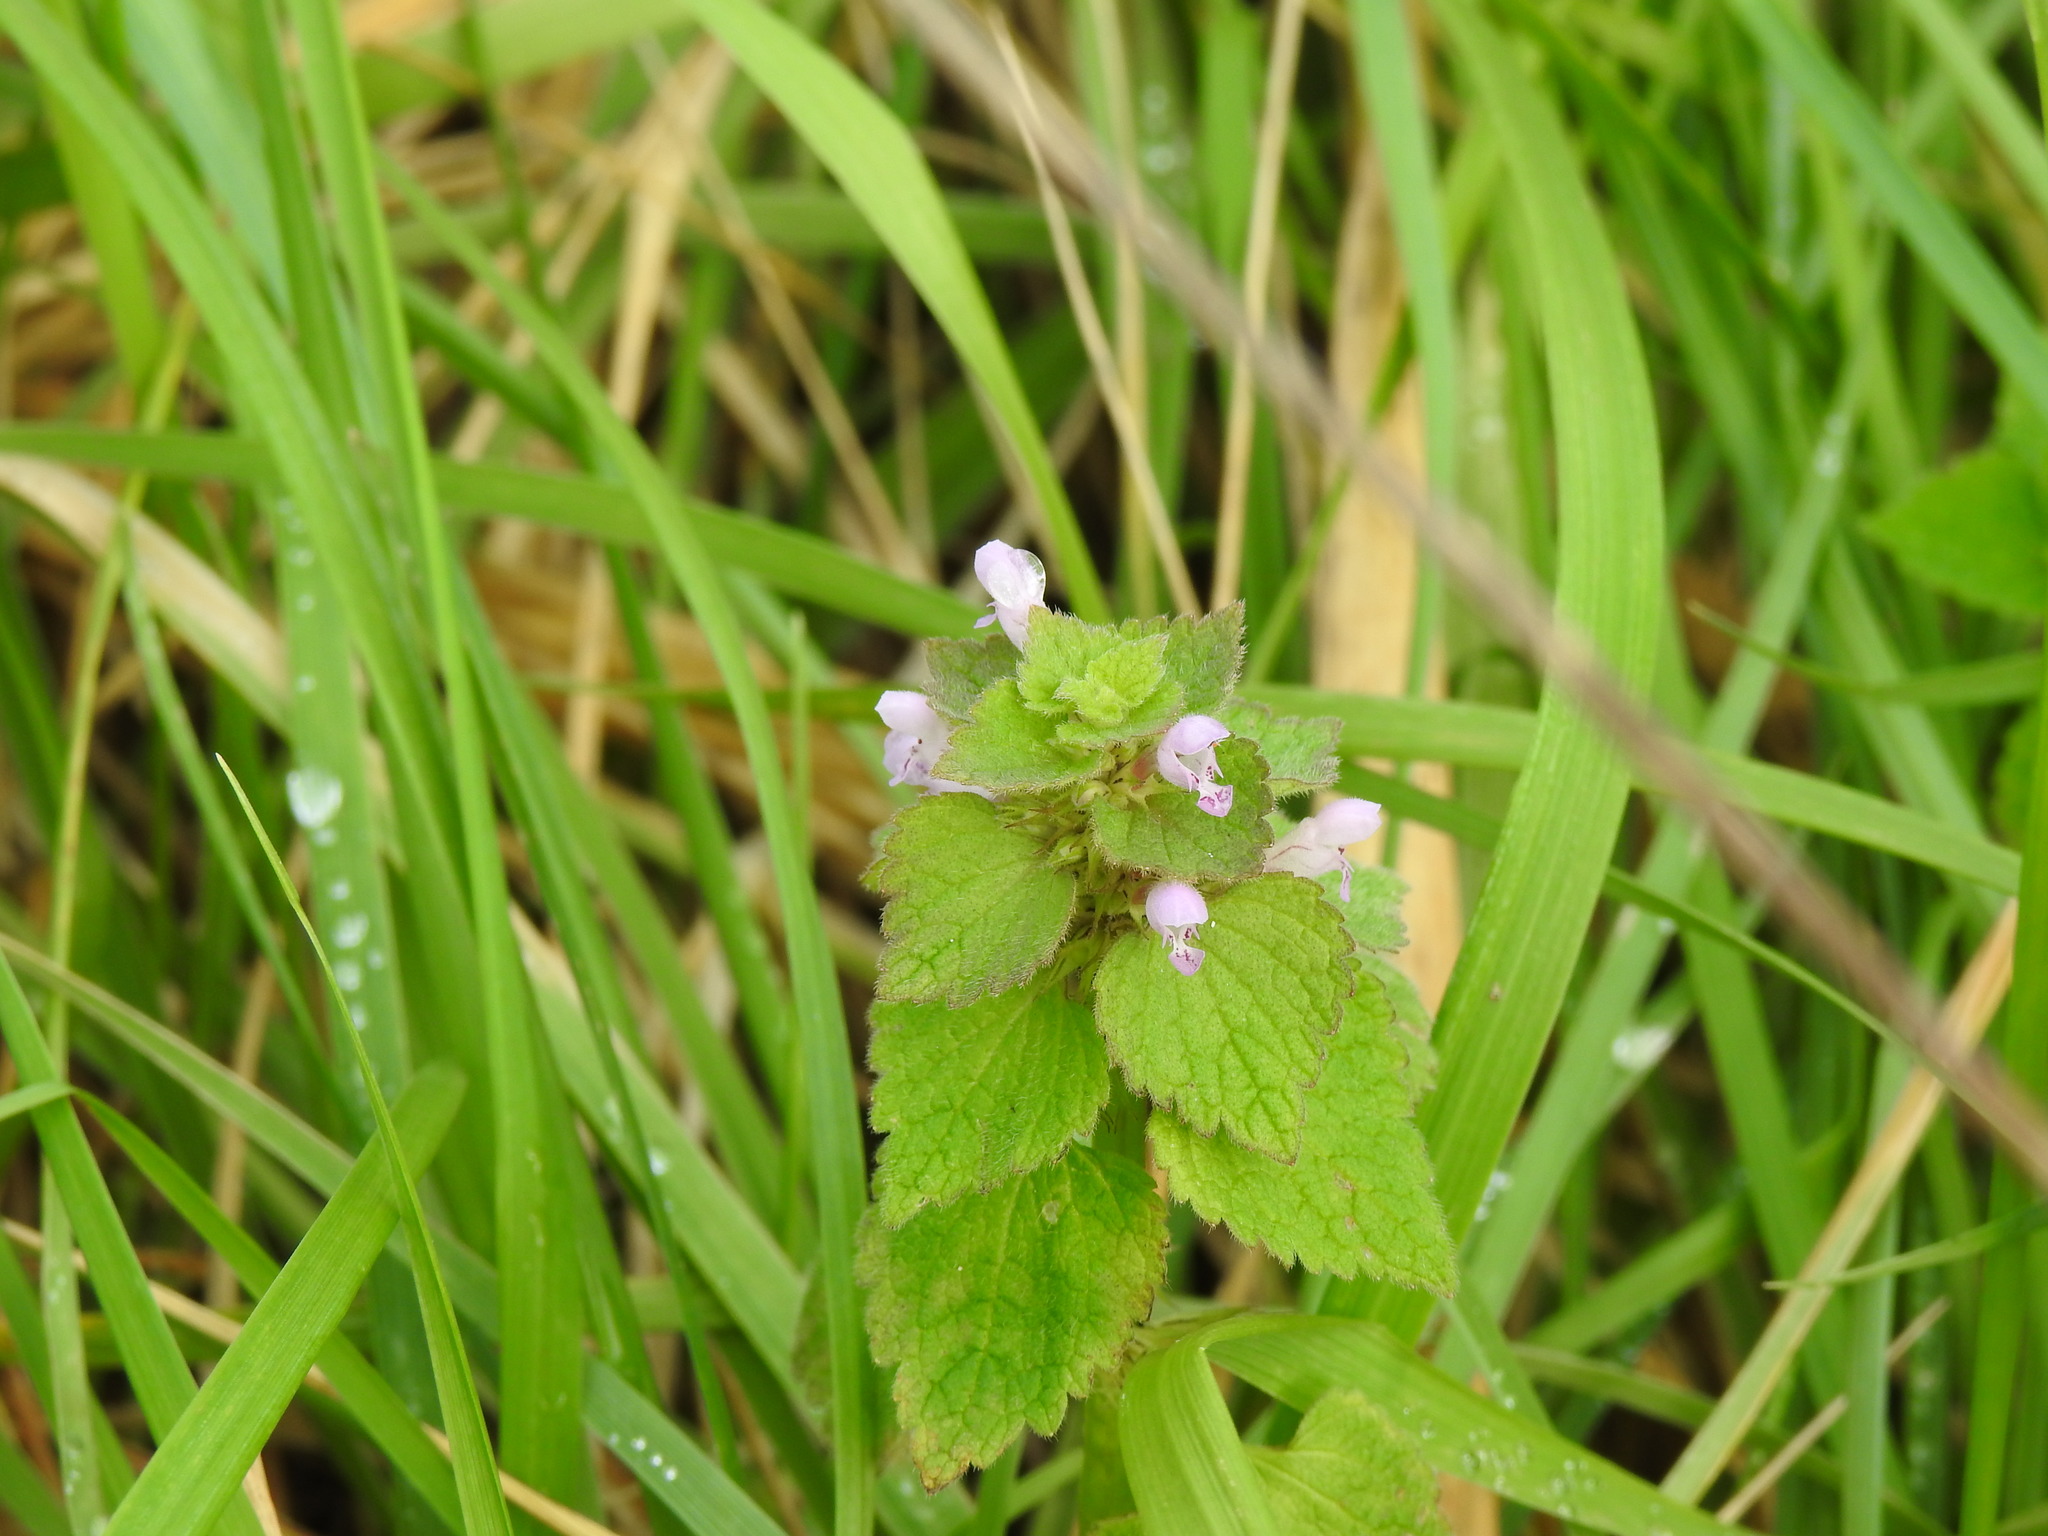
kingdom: Plantae
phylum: Tracheophyta
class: Magnoliopsida
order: Lamiales
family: Lamiaceae
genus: Lamium
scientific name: Lamium purpureum
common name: Red dead-nettle
